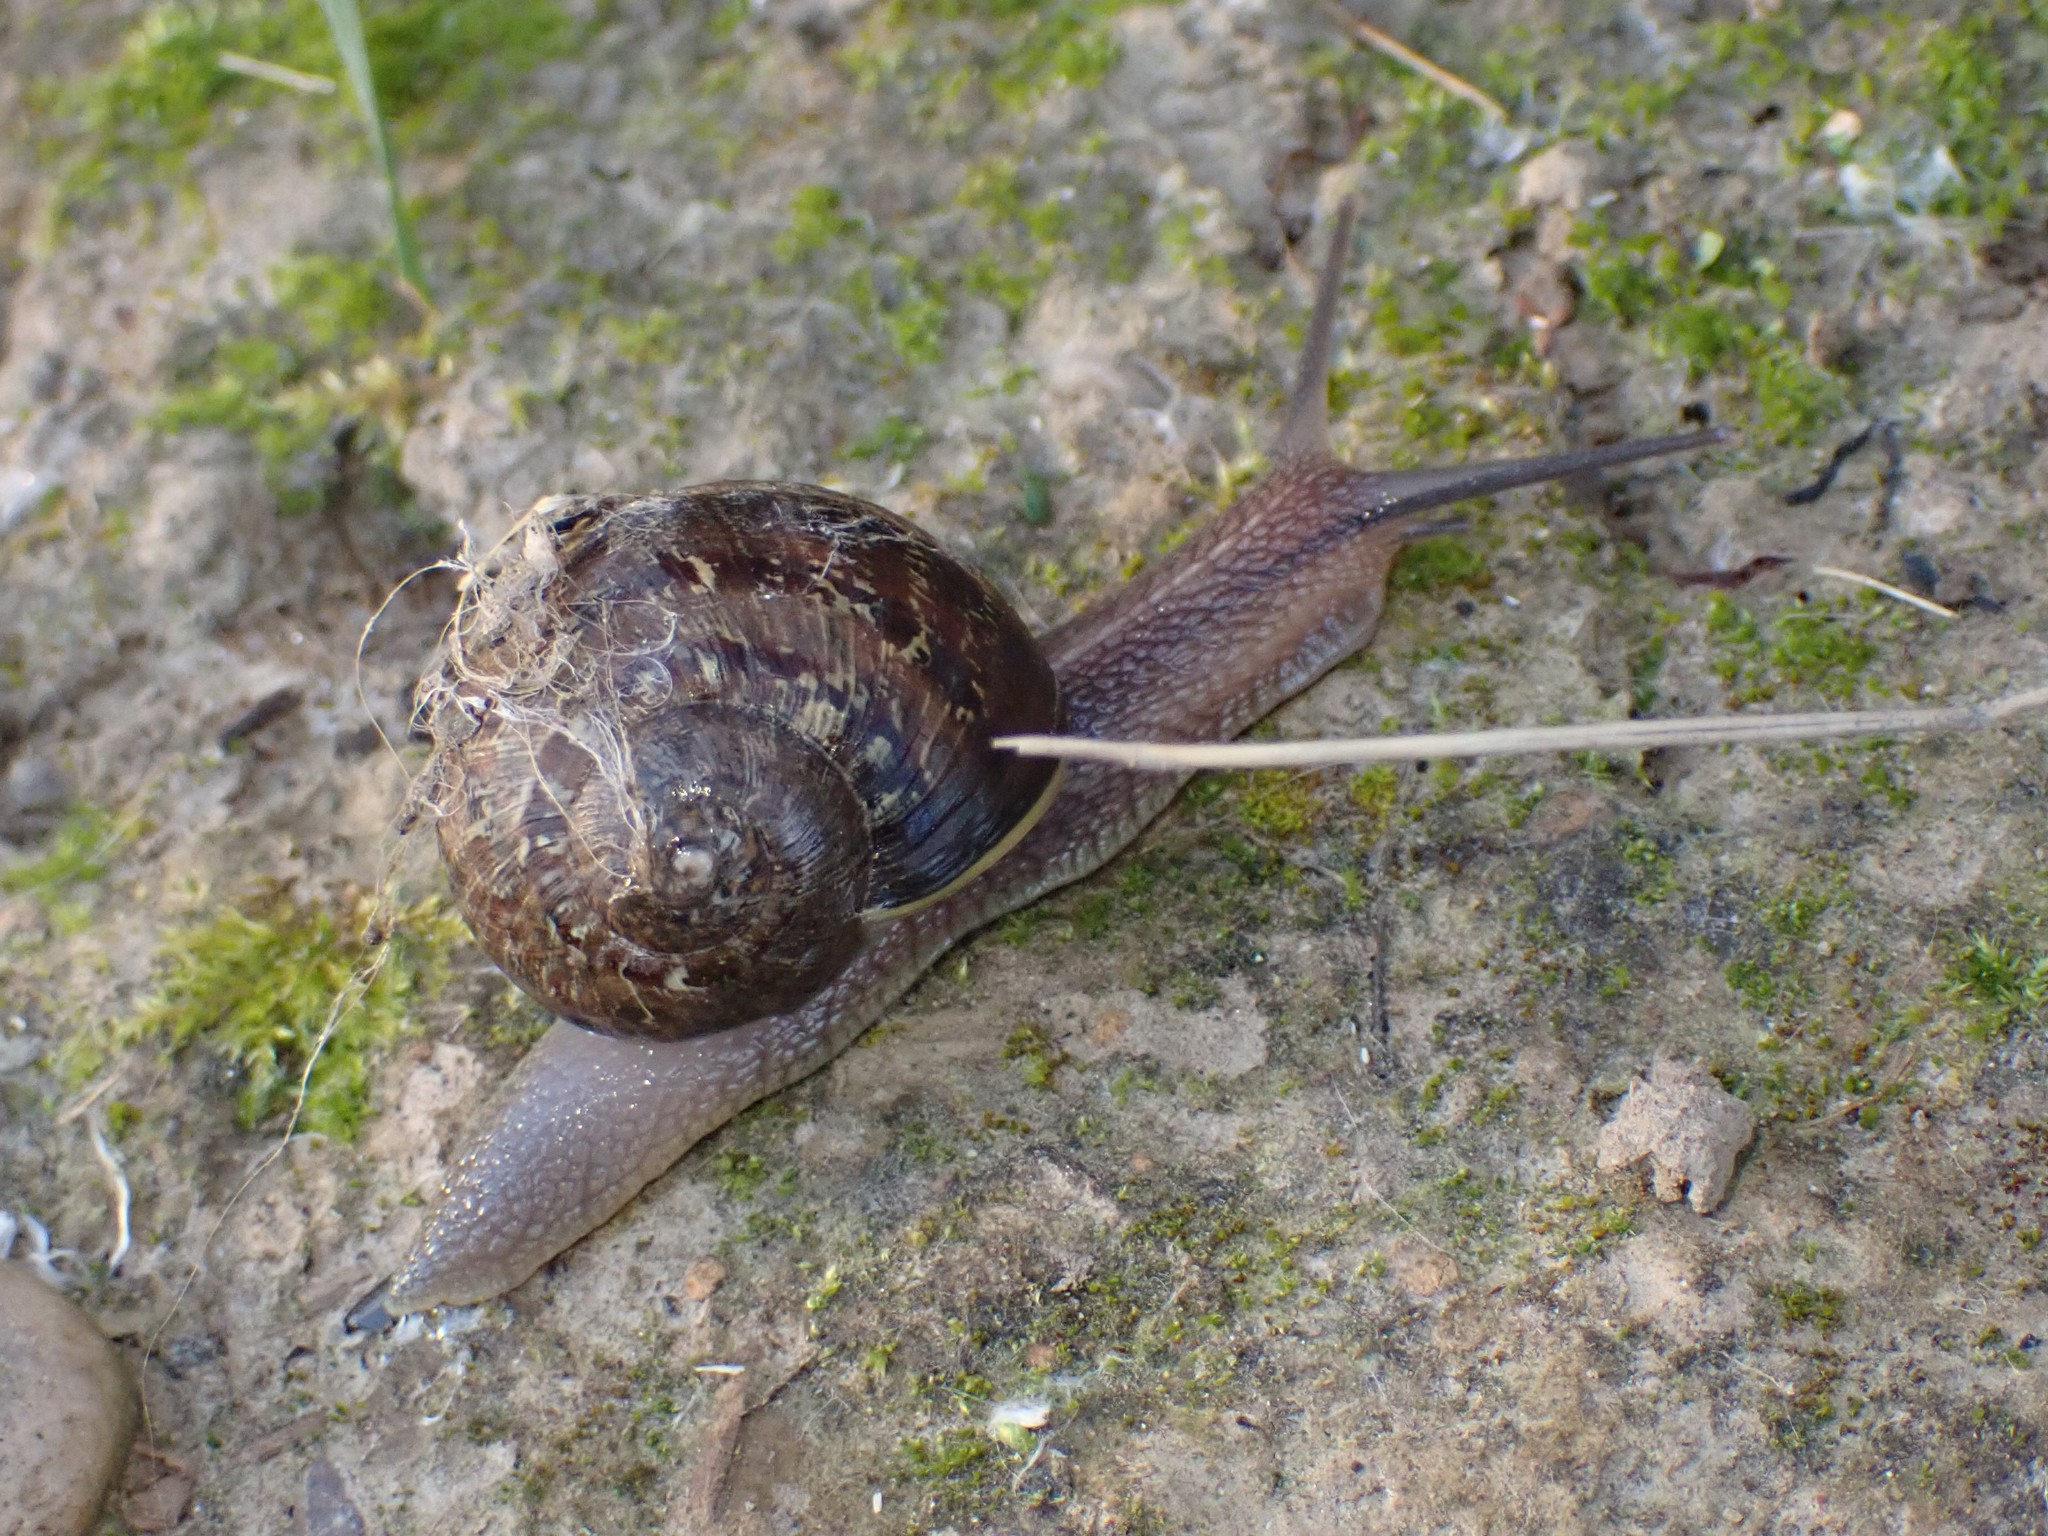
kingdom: Animalia
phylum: Mollusca
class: Gastropoda
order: Stylommatophora
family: Helicidae
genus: Cornu
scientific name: Cornu aspersum
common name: Brown garden snail
